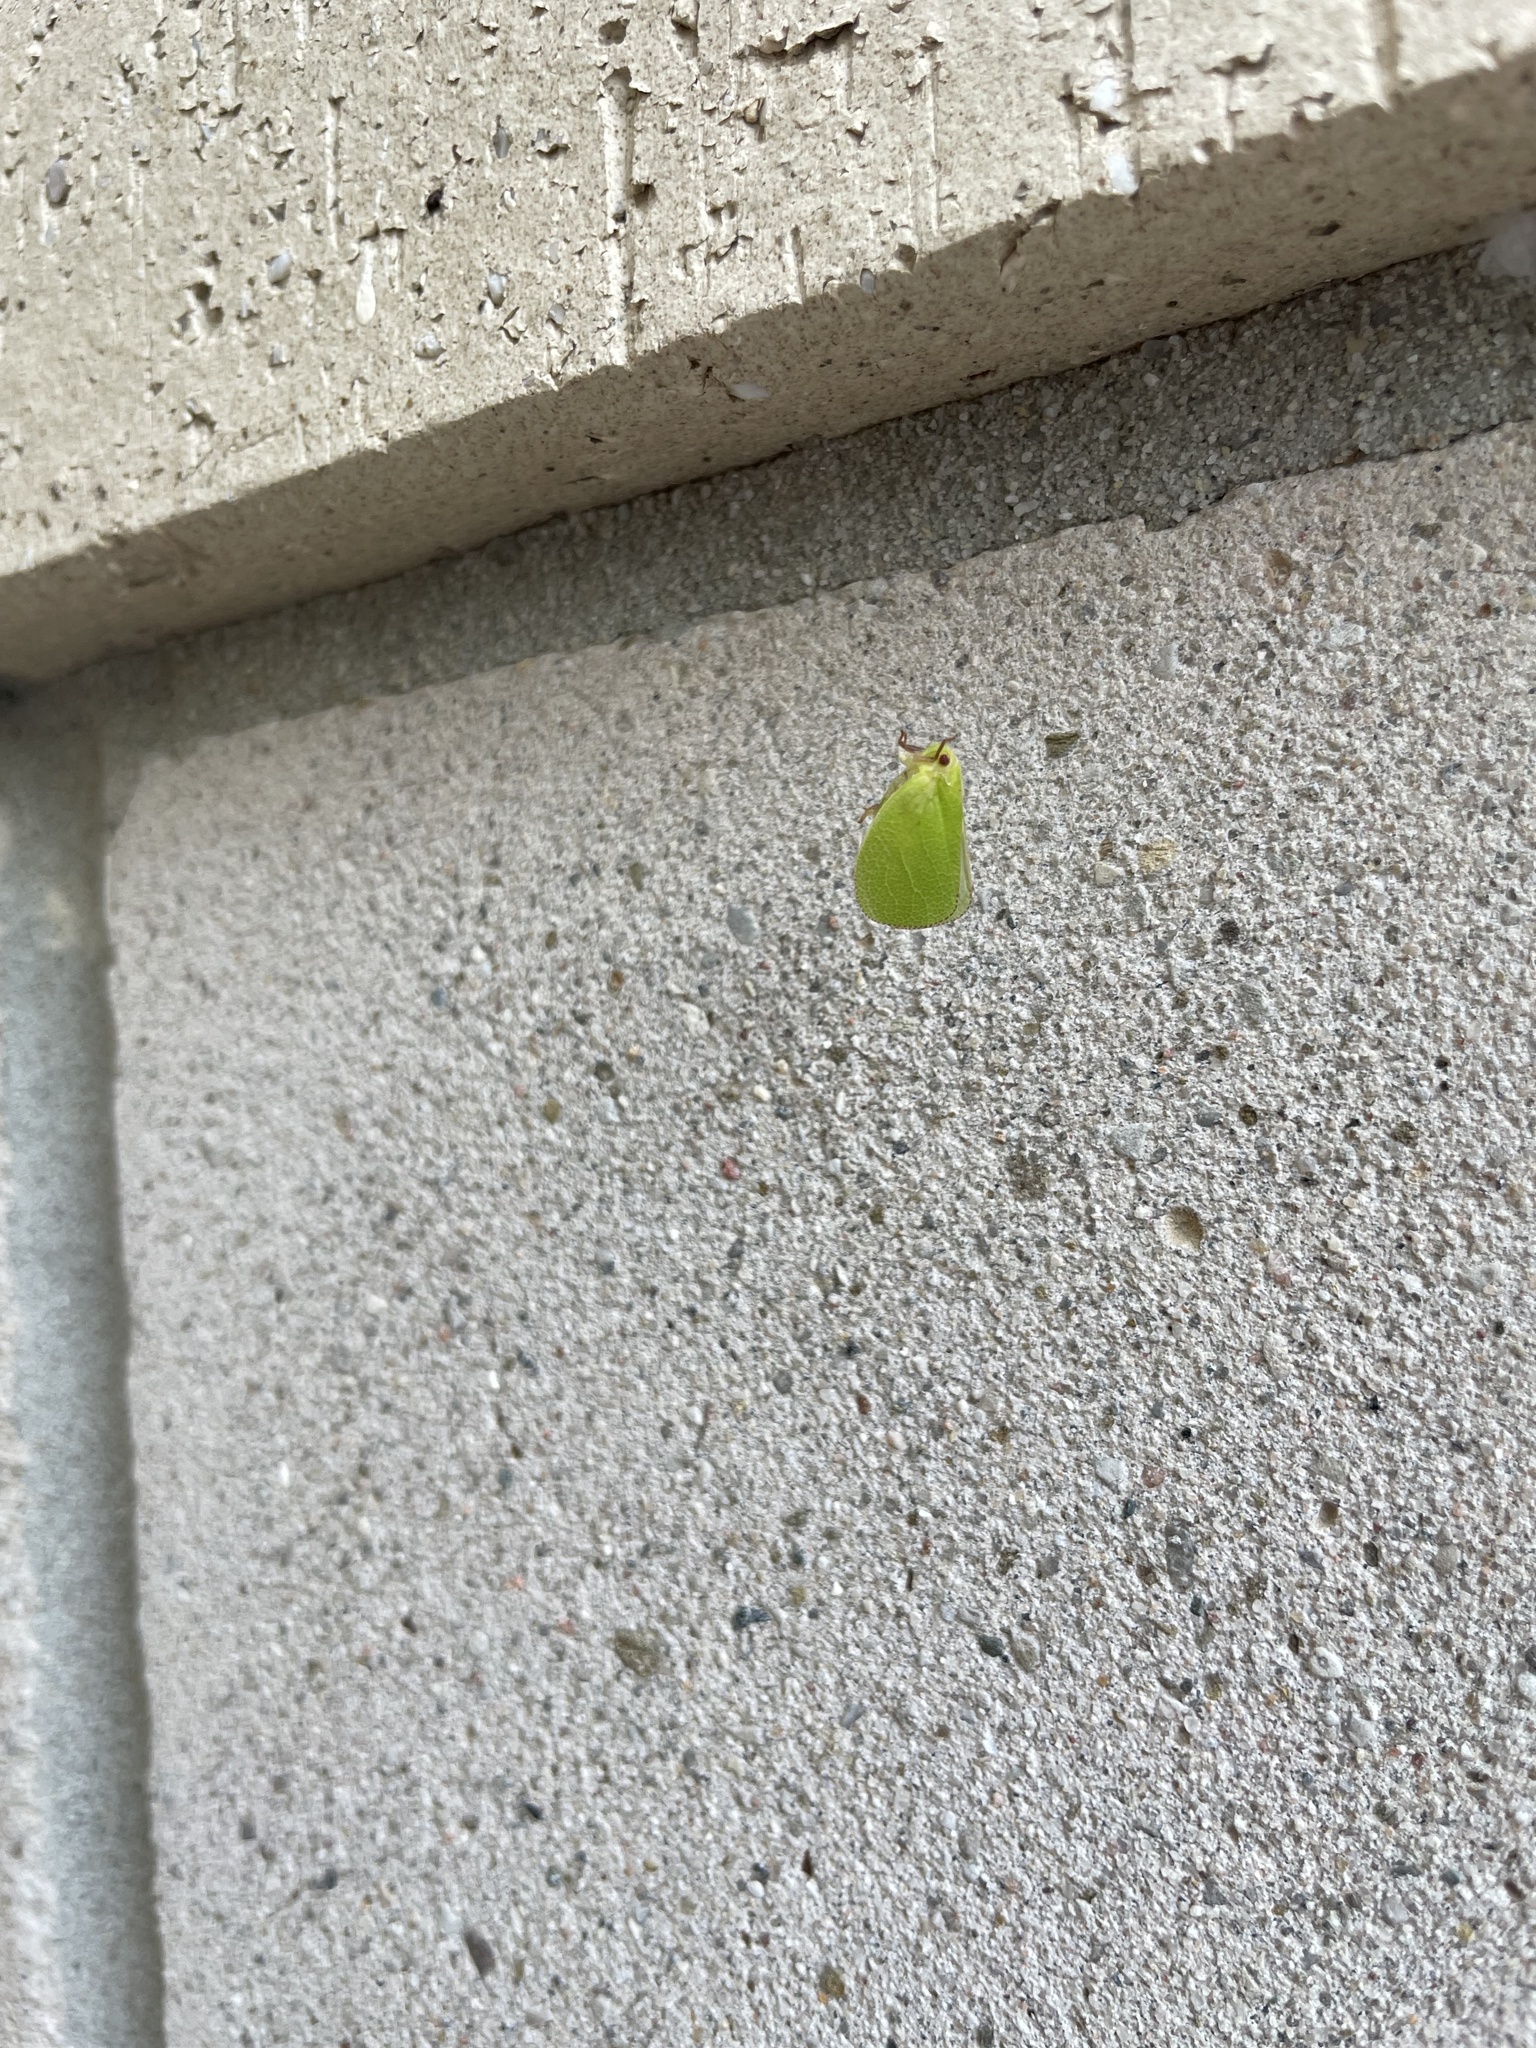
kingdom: Animalia
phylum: Arthropoda
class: Insecta
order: Hemiptera
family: Acanaloniidae
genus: Acanalonia
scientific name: Acanalonia servillei
